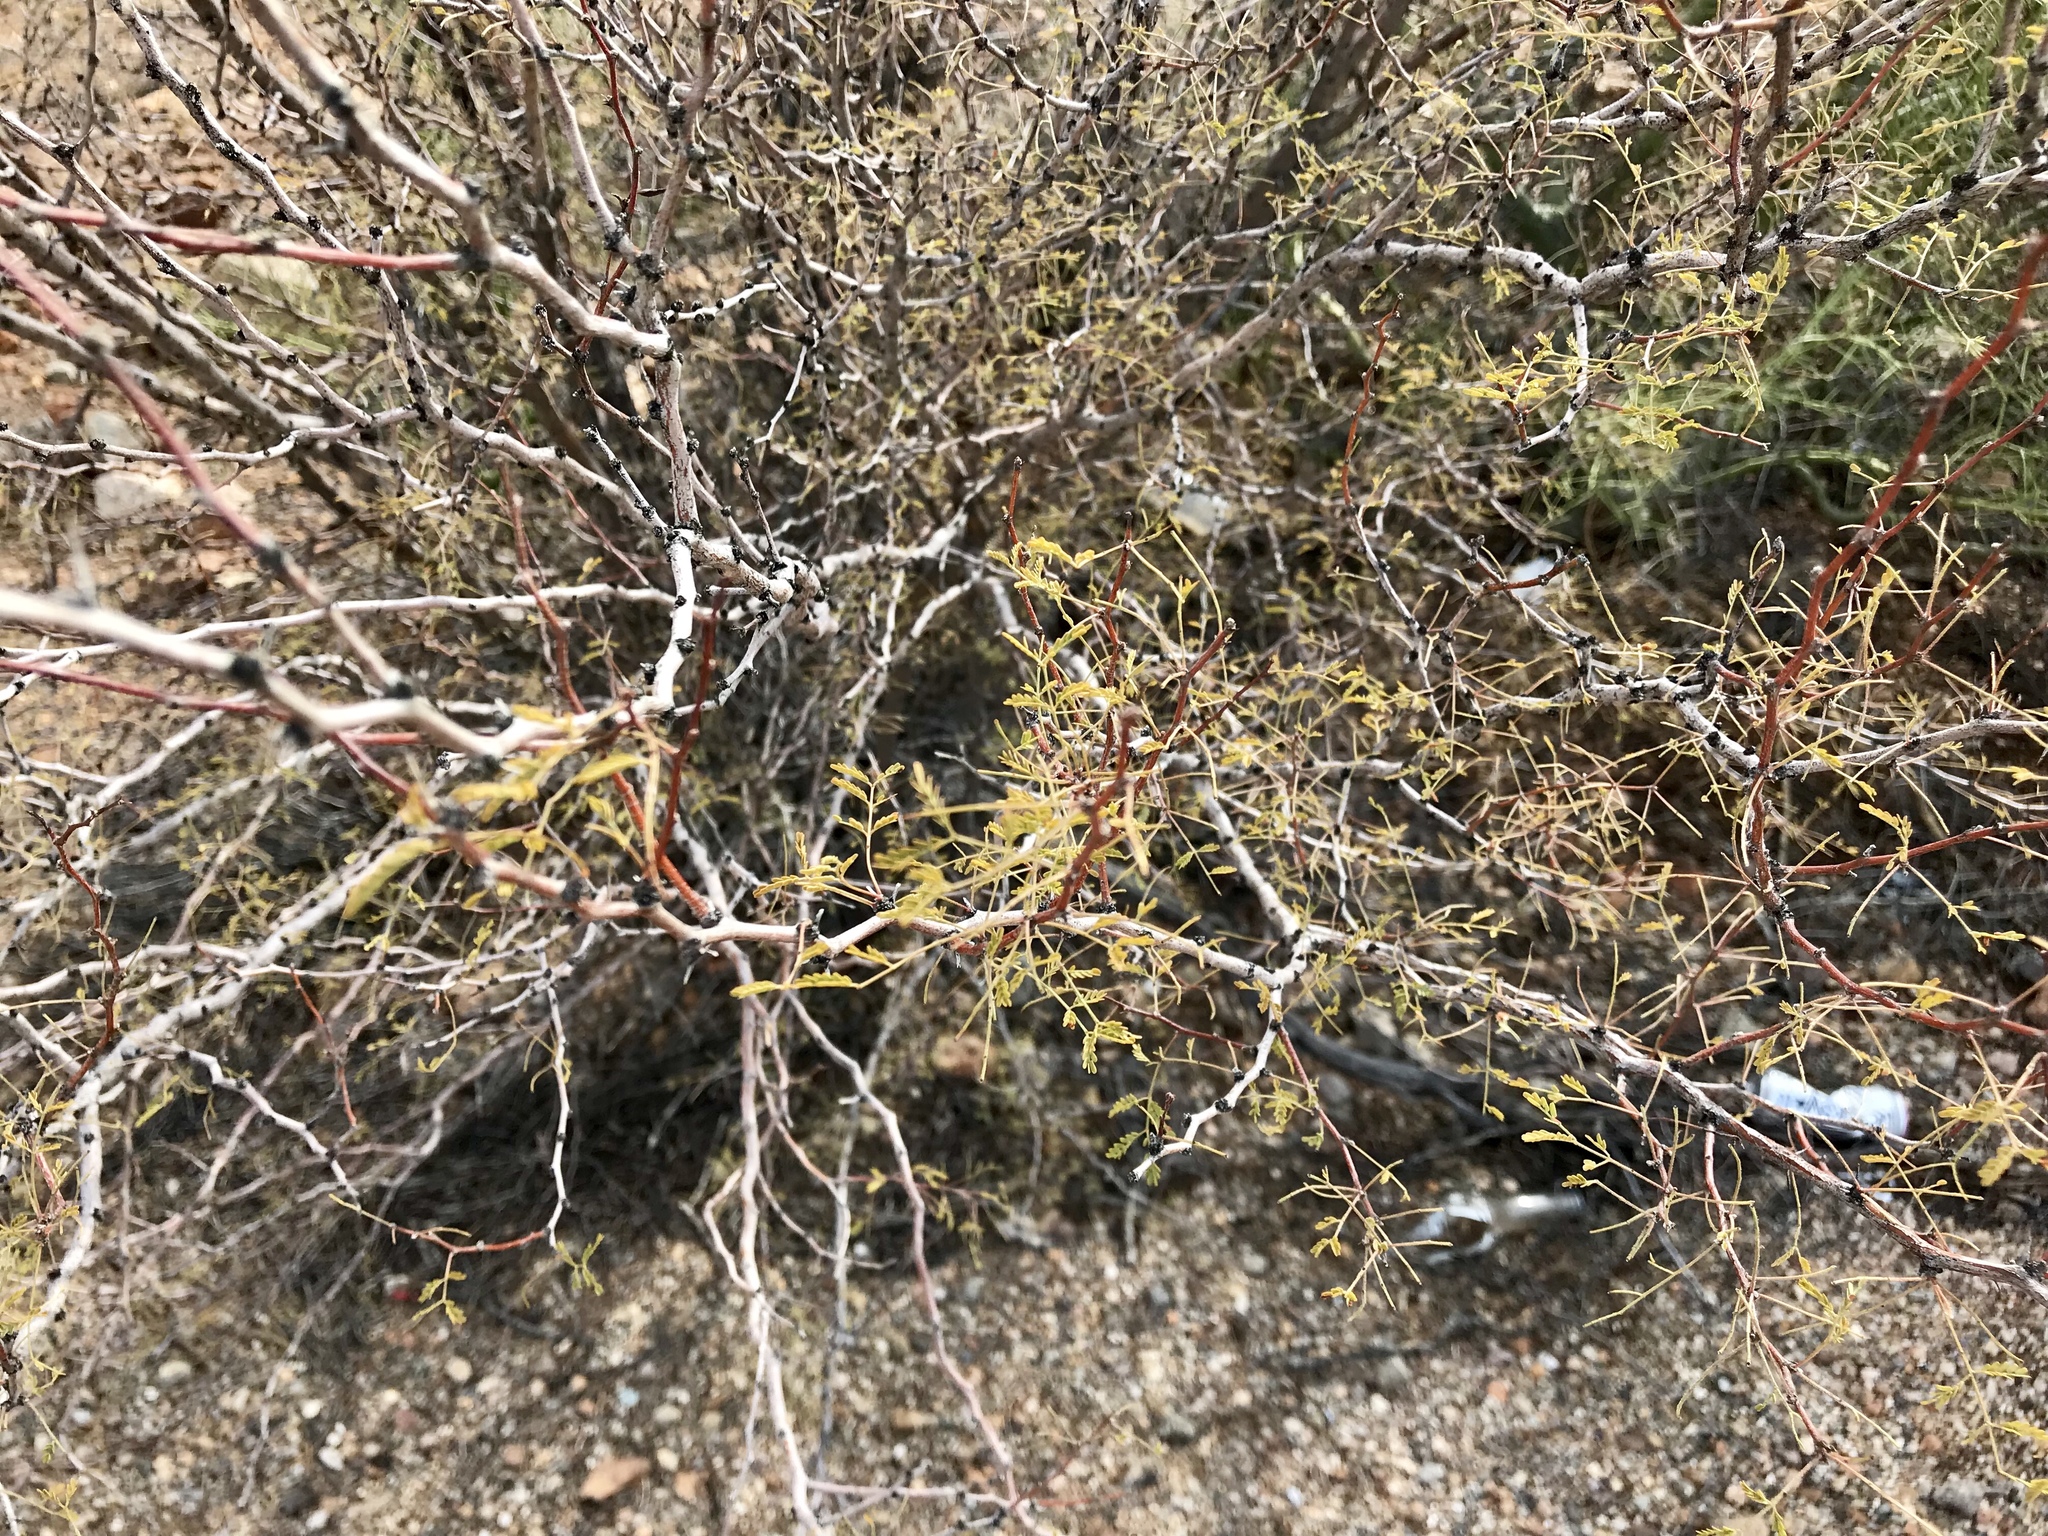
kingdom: Plantae
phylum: Tracheophyta
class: Magnoliopsida
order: Fabales
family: Fabaceae
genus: Vachellia
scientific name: Vachellia constricta
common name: Mescat acacia
